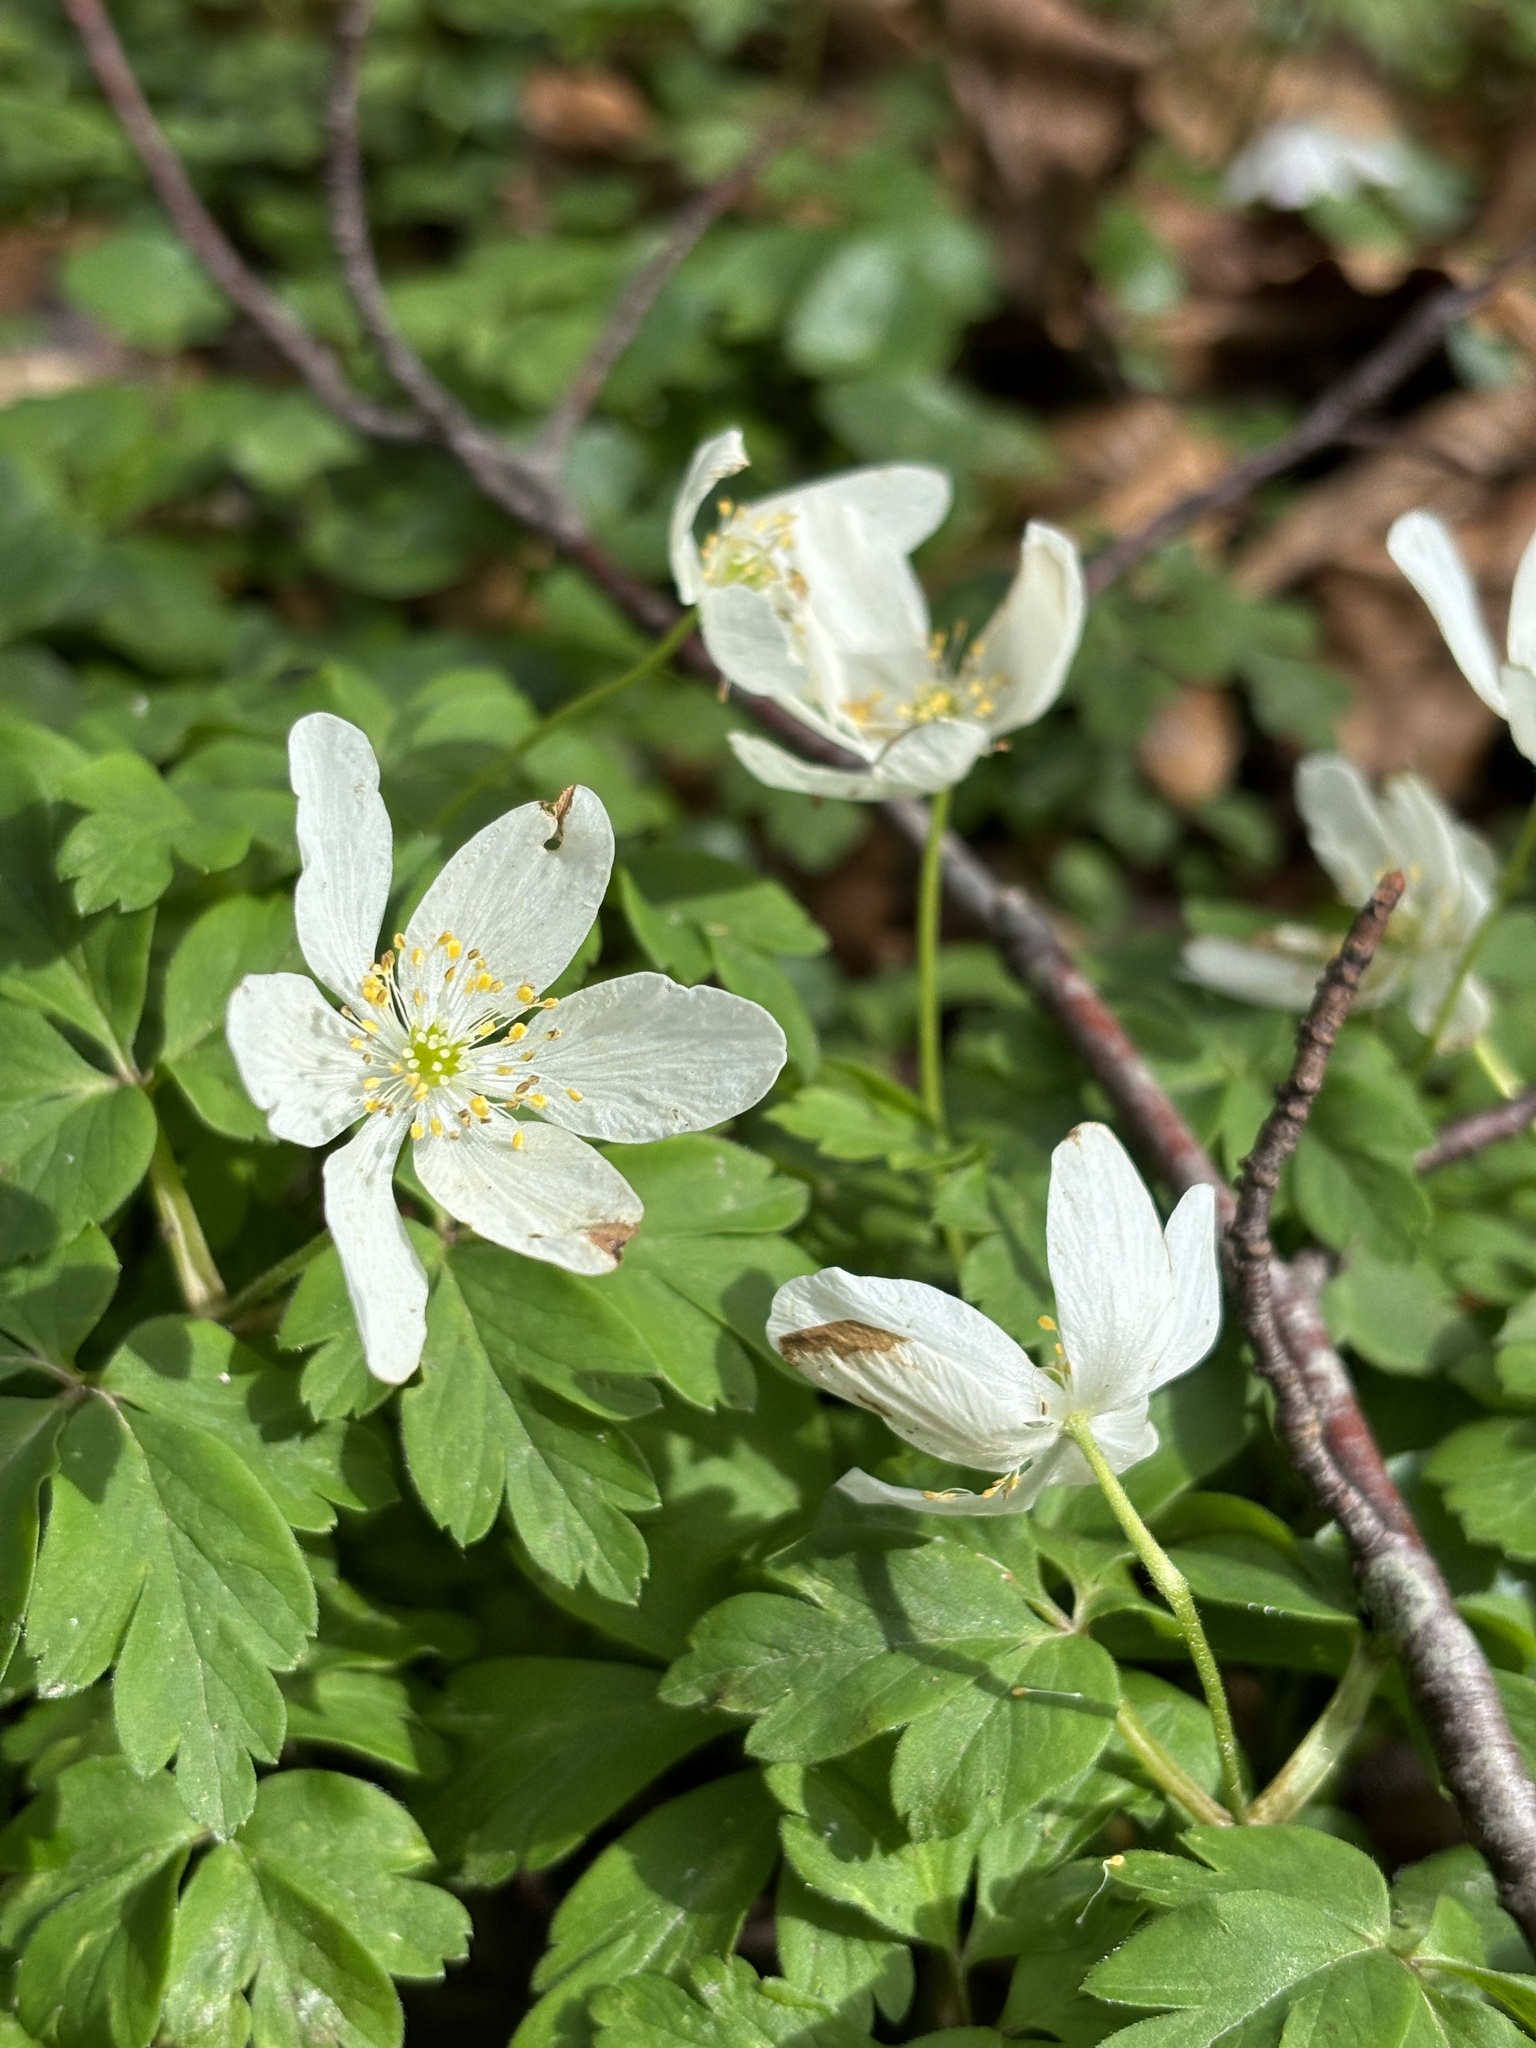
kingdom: Plantae
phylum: Tracheophyta
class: Magnoliopsida
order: Ranunculales
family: Ranunculaceae
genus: Anemone
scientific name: Anemone nemorosa
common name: Wood anemone
